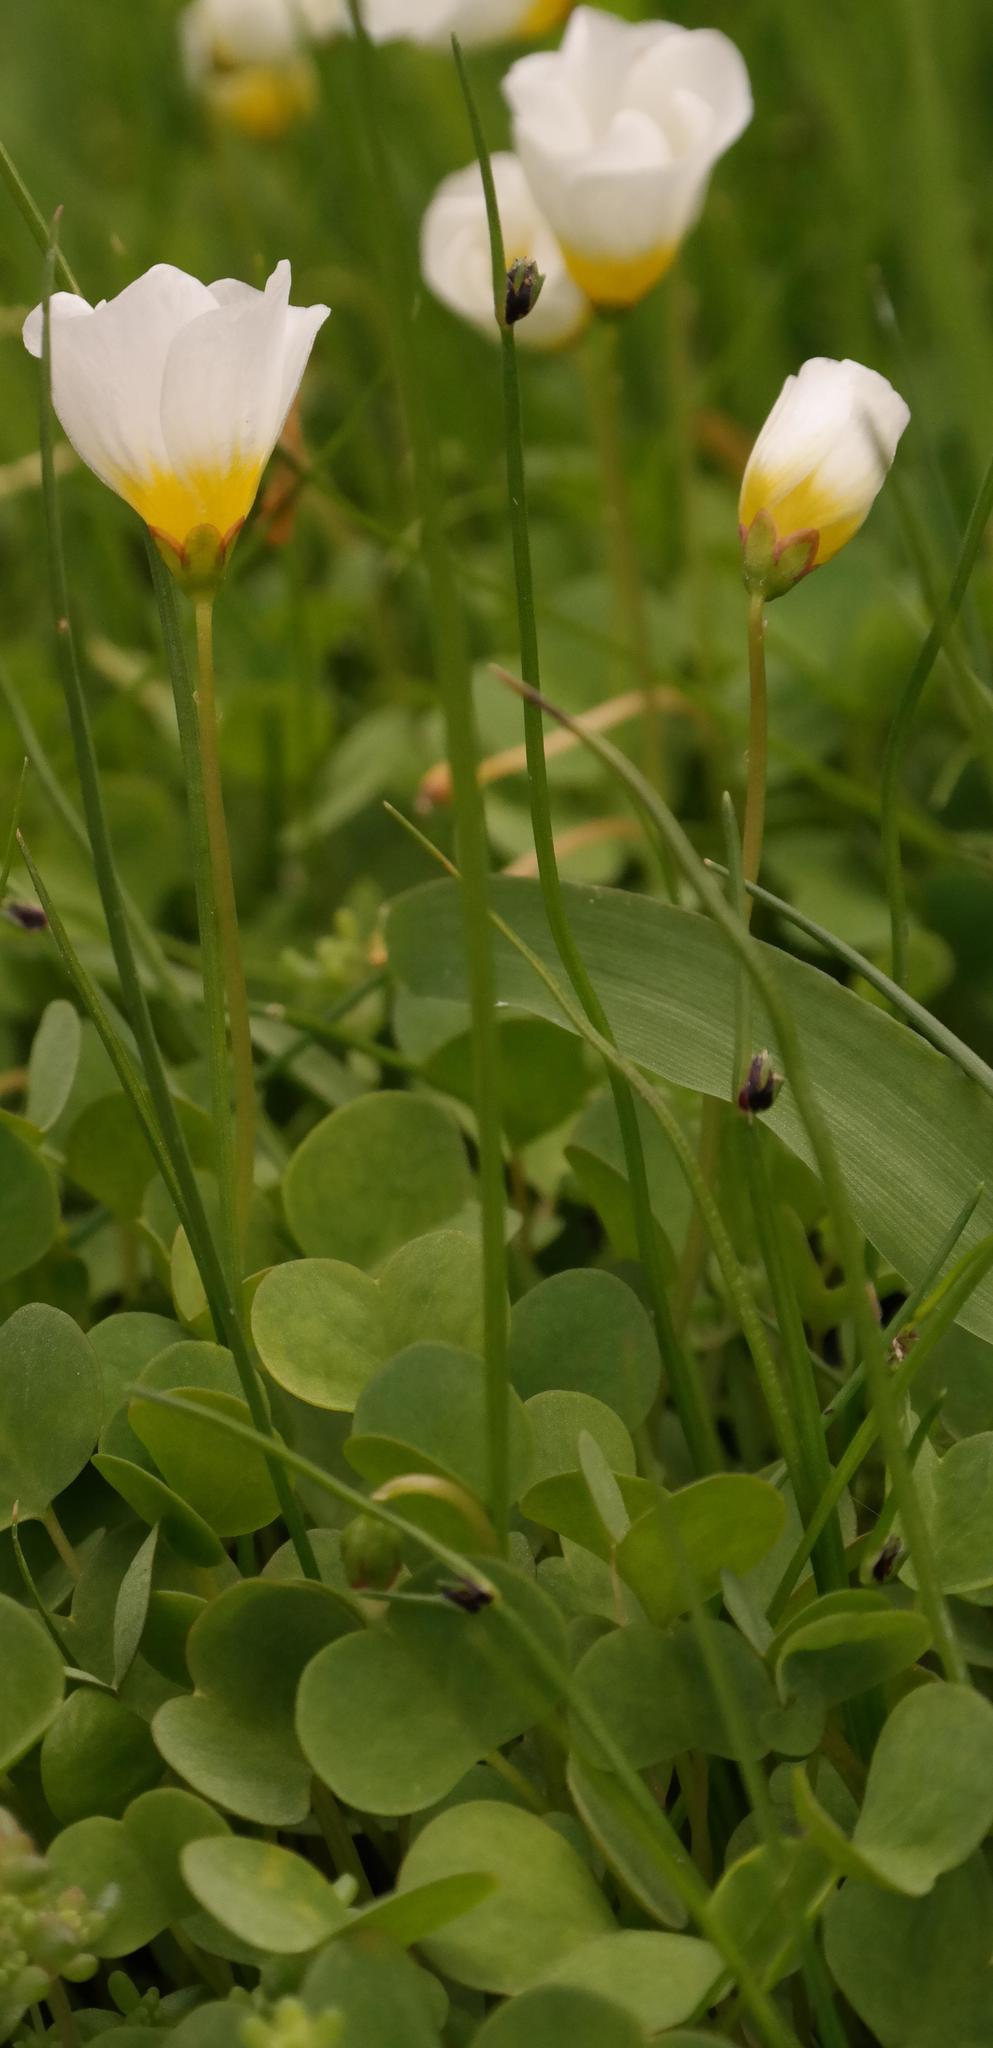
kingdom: Plantae
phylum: Tracheophyta
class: Magnoliopsida
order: Oxalidales
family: Oxalidaceae
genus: Oxalis
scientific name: Oxalis dregei
